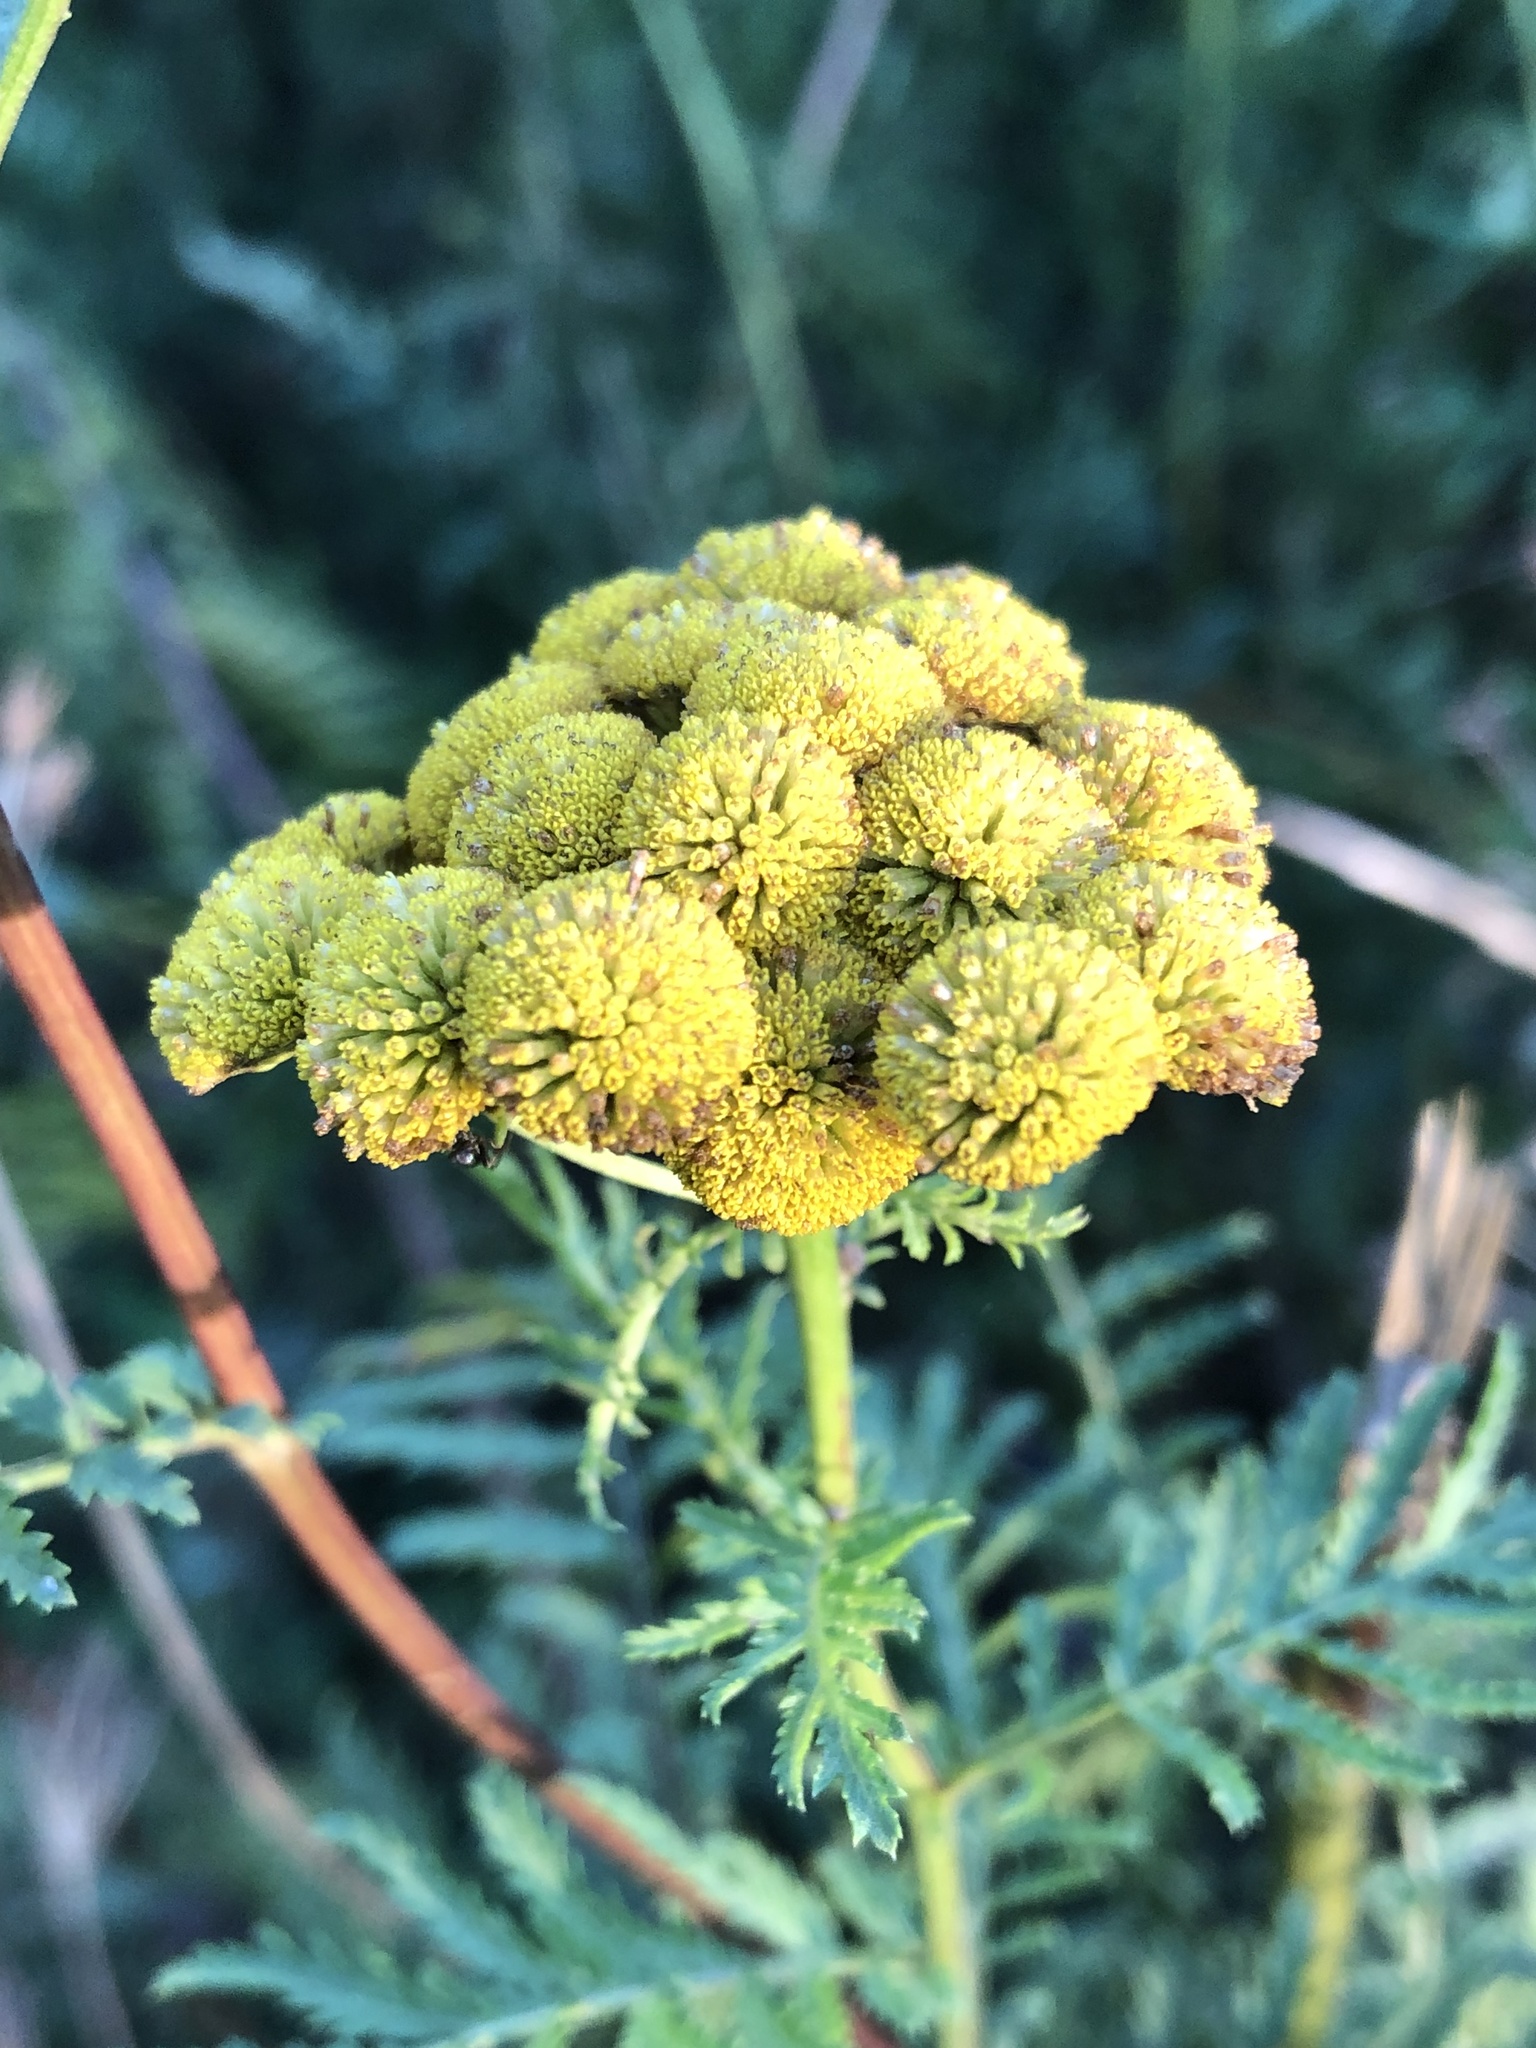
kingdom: Plantae
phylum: Tracheophyta
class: Magnoliopsida
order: Asterales
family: Asteraceae
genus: Tanacetum
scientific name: Tanacetum vulgare
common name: Common tansy
